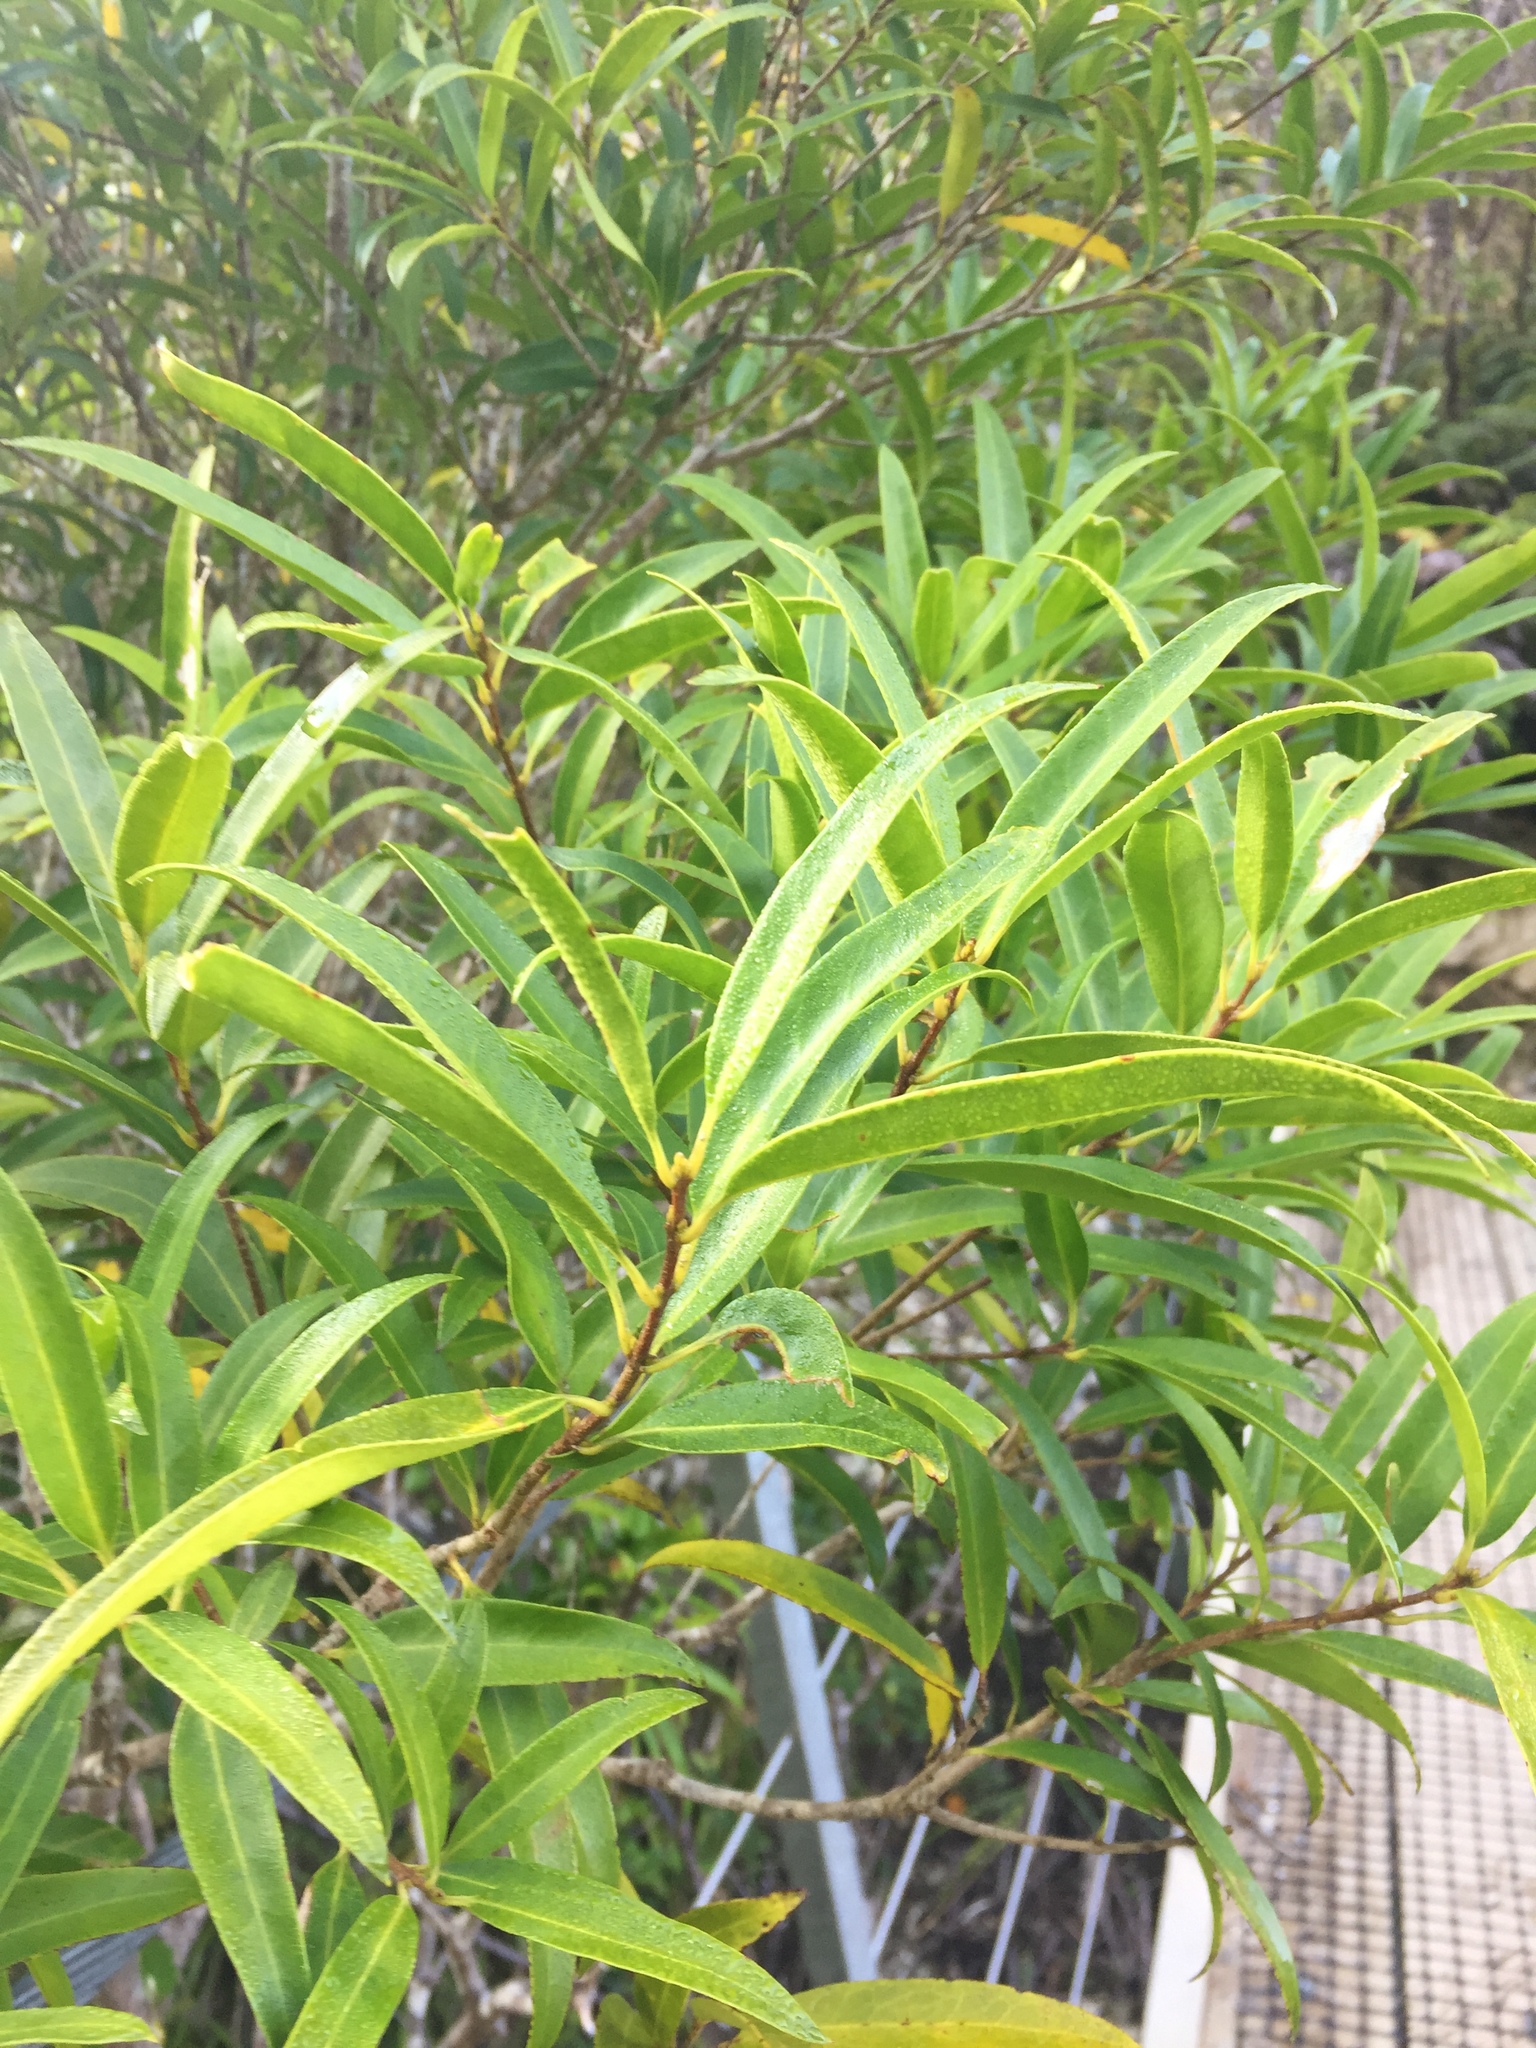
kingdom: Plantae
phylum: Tracheophyta
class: Magnoliopsida
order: Lamiales
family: Oleaceae
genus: Nestegis
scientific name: Nestegis lanceolata
